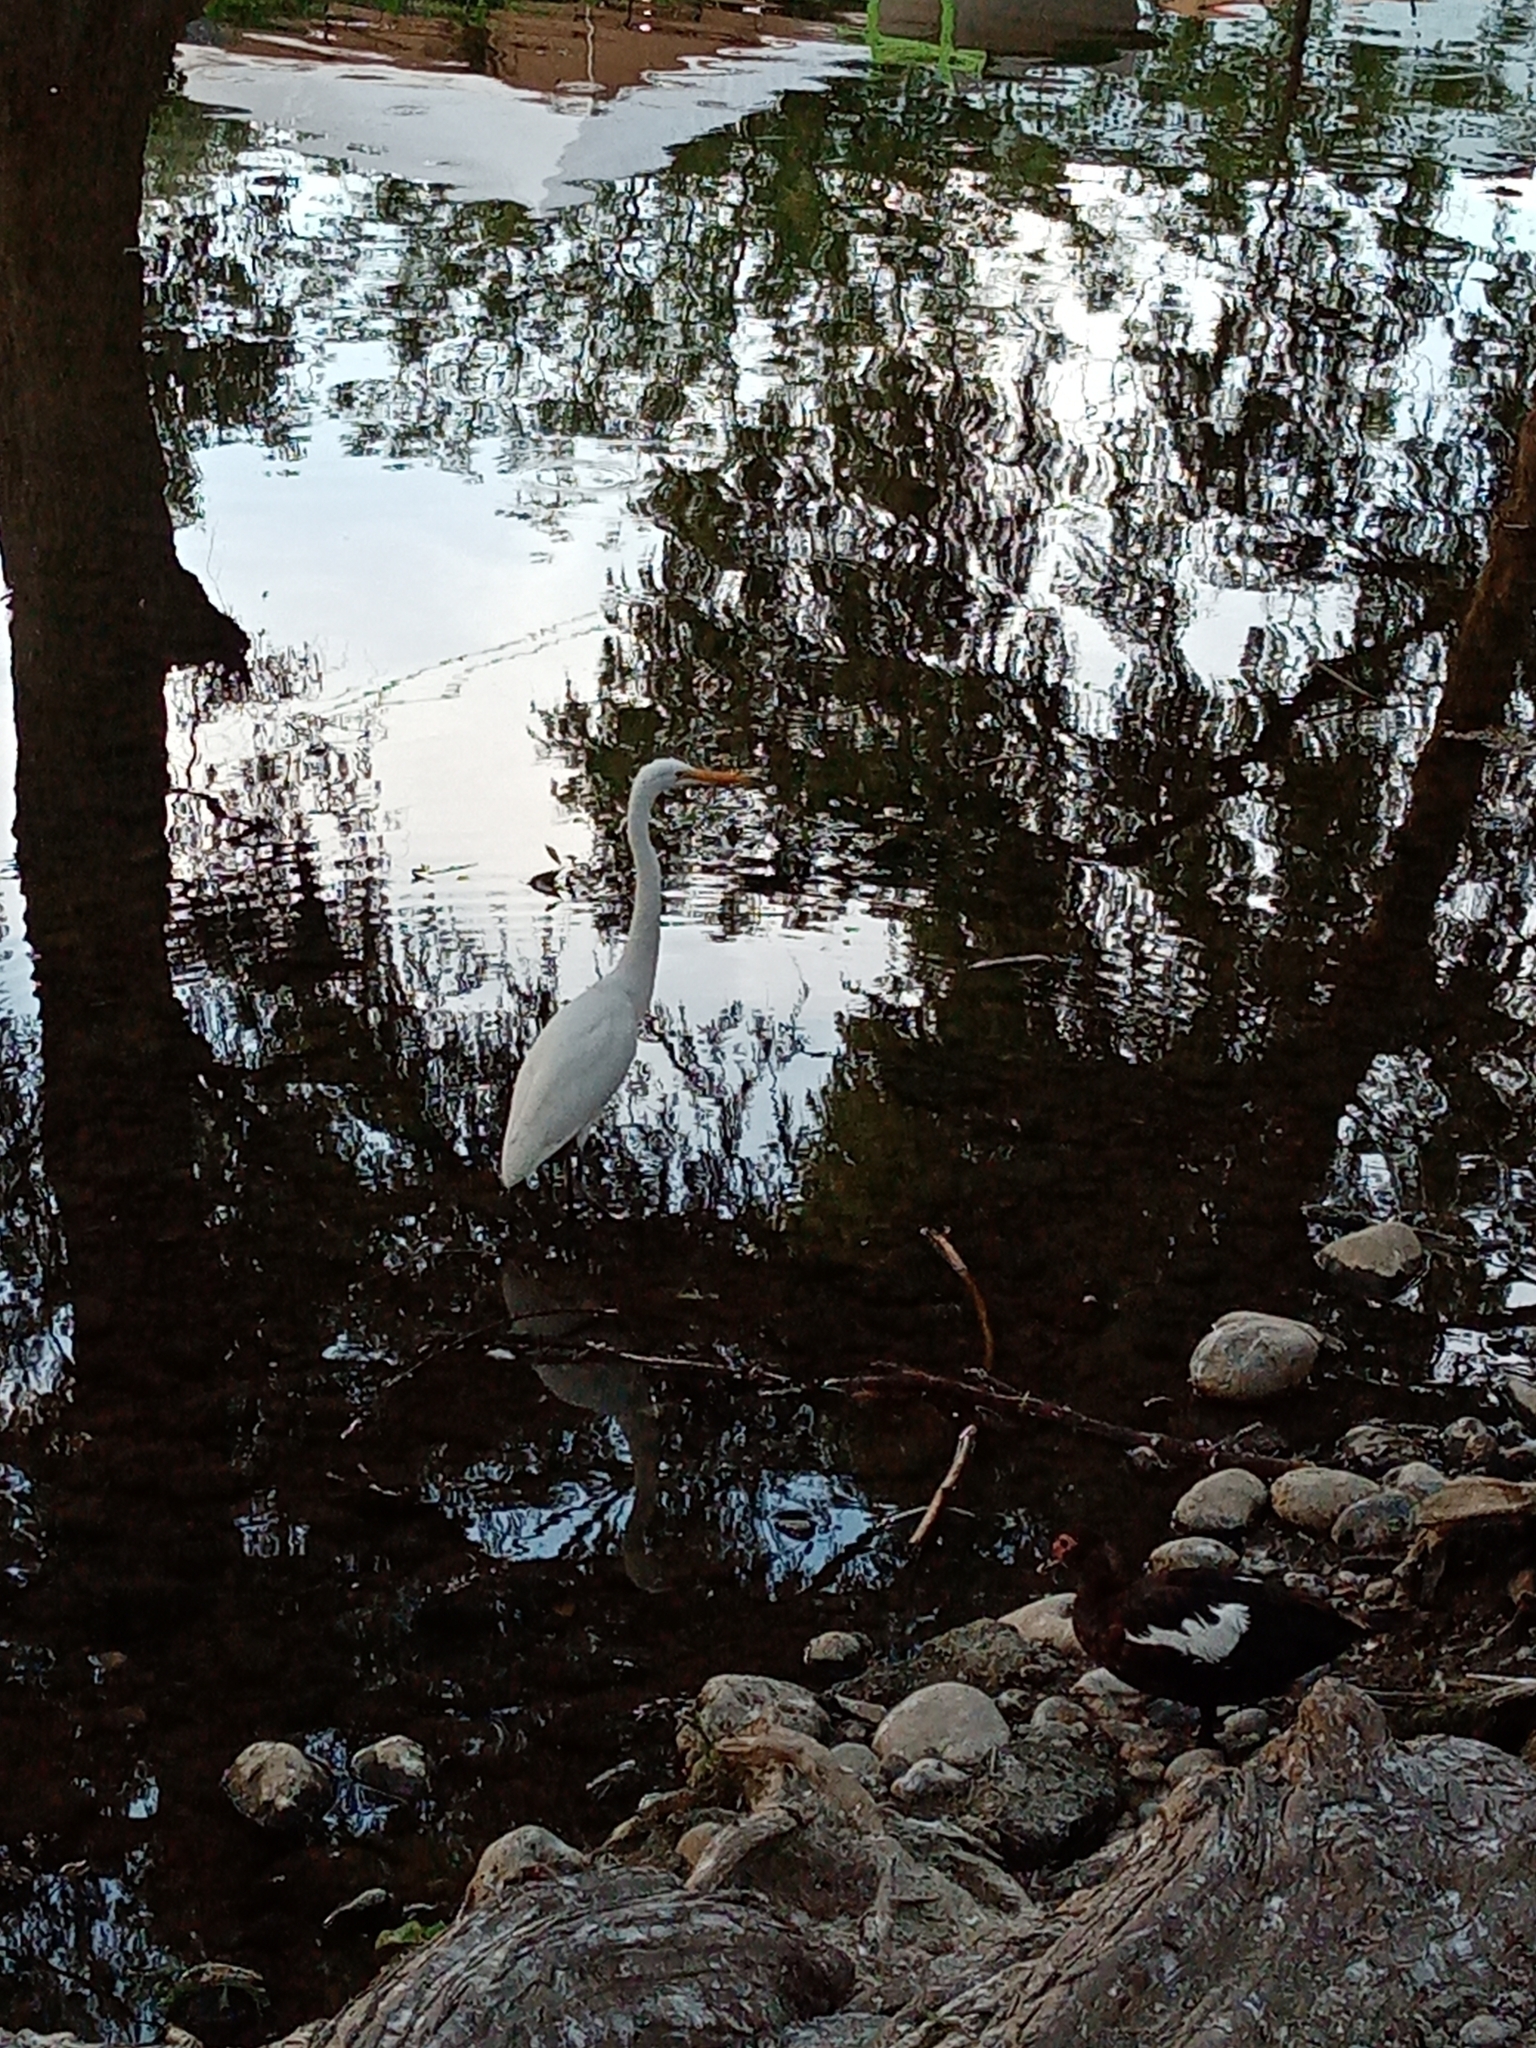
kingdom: Animalia
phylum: Chordata
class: Aves
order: Pelecaniformes
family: Ardeidae
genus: Ardea
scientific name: Ardea alba
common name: Great egret
